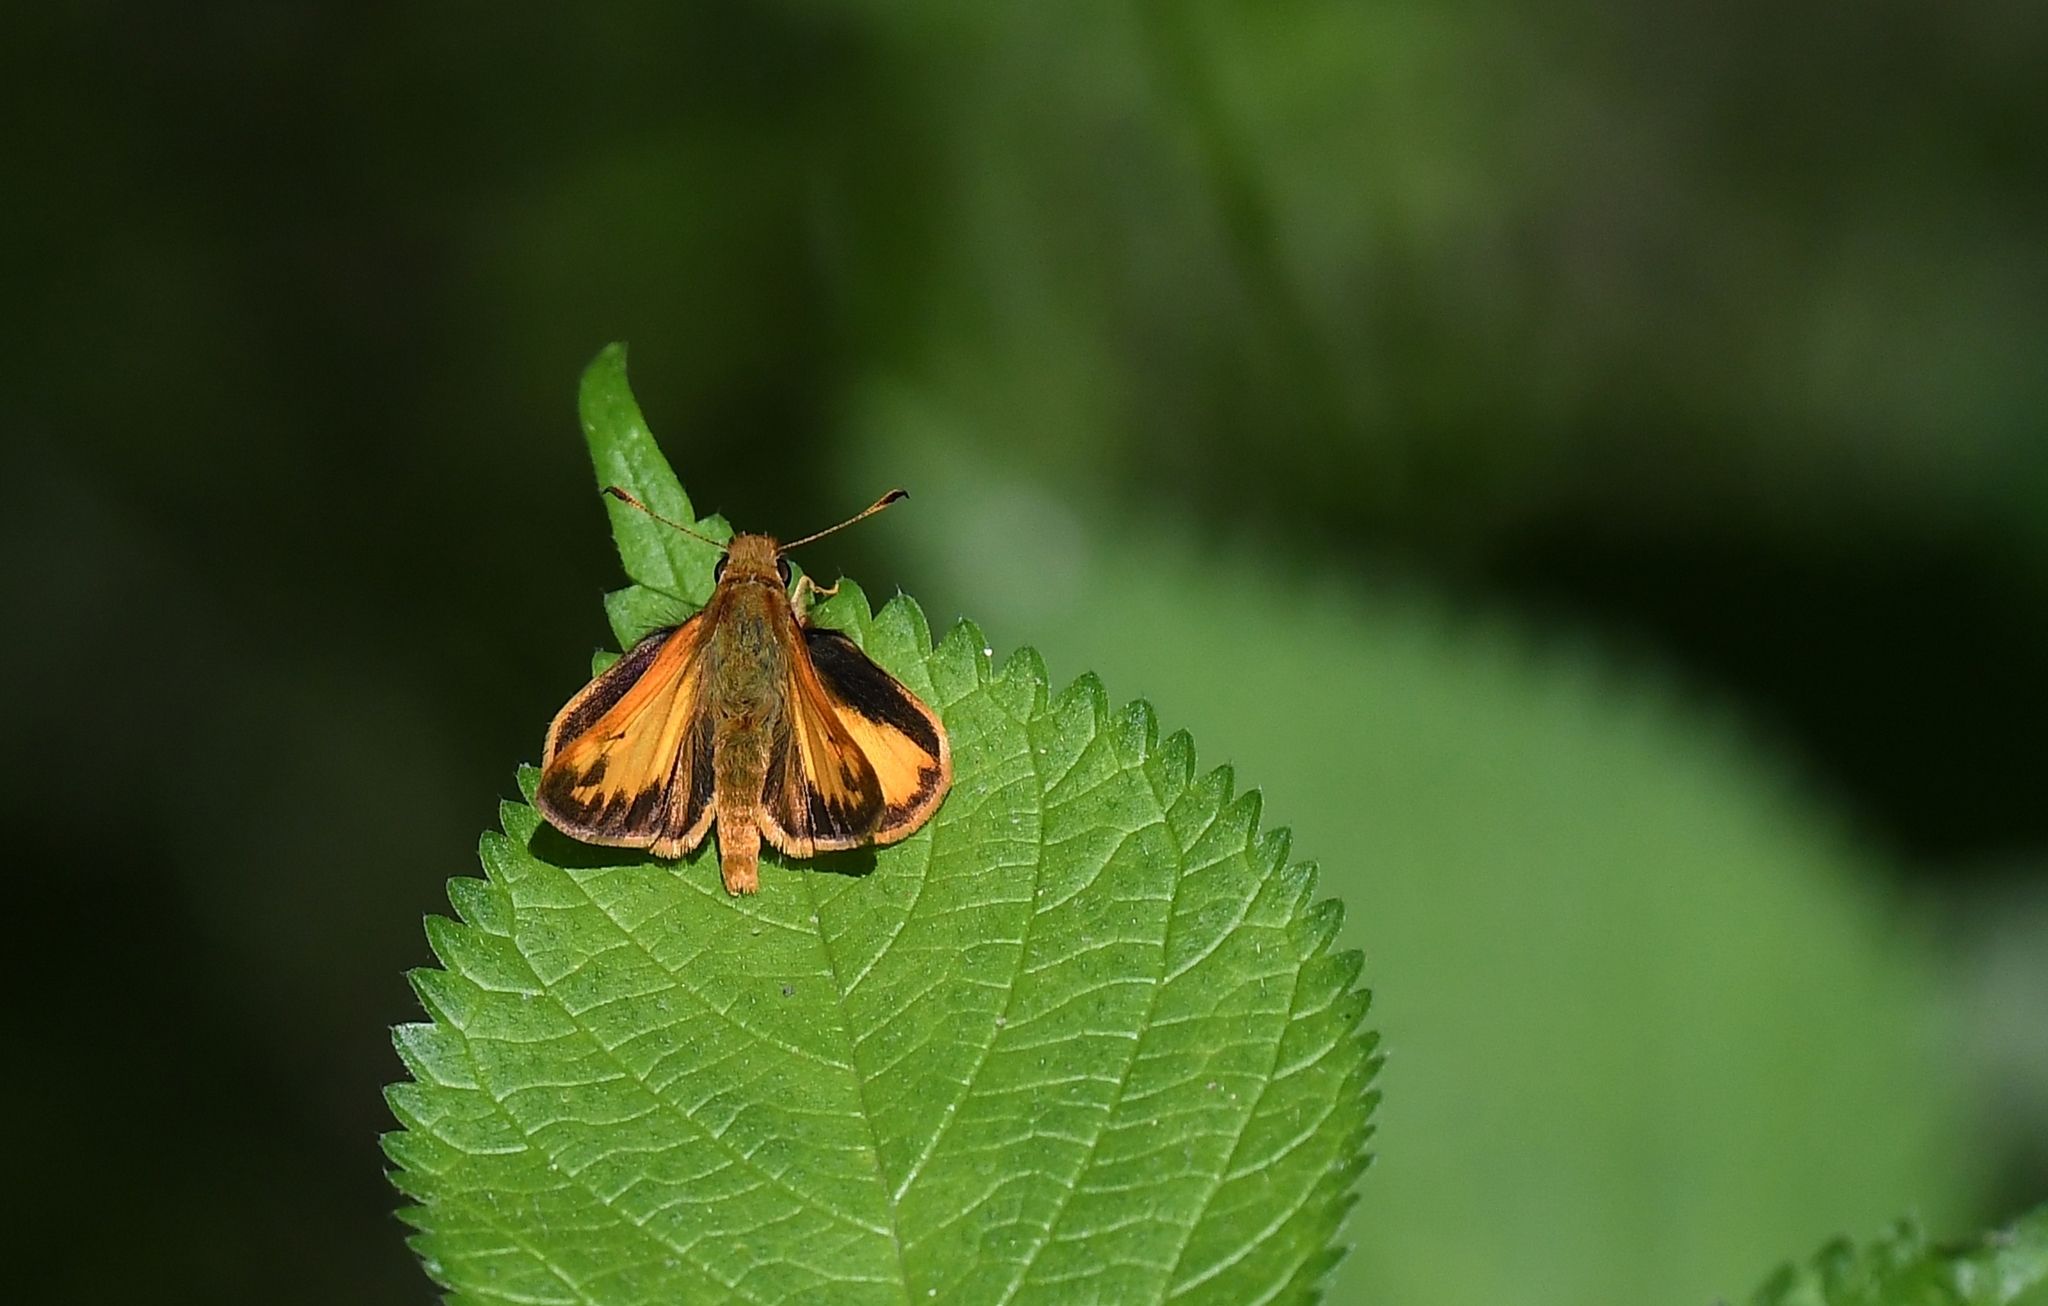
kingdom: Animalia
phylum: Arthropoda
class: Insecta
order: Lepidoptera
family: Hesperiidae
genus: Lon
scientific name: Lon zabulon
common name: Zabulon skipper
